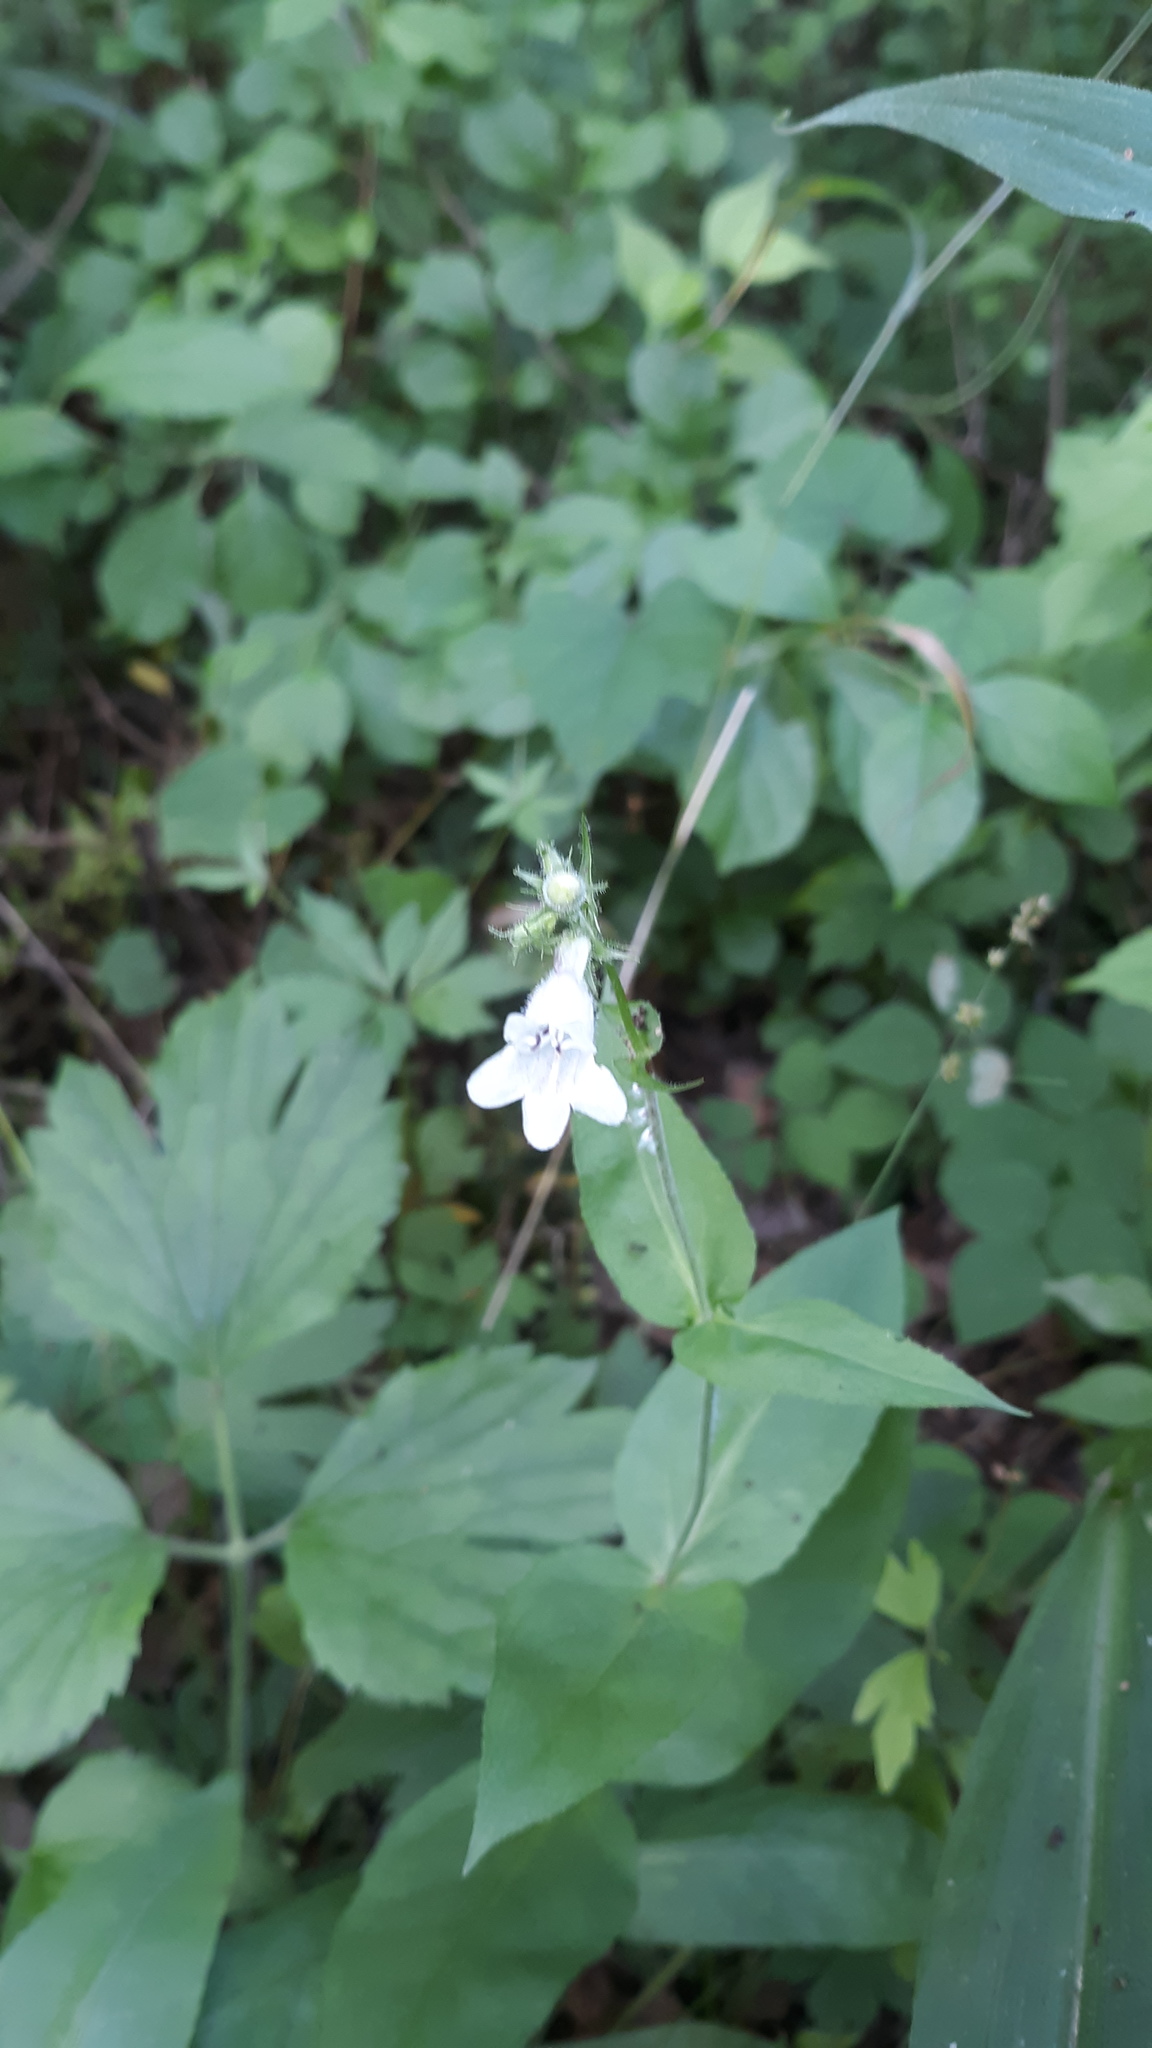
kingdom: Plantae
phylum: Tracheophyta
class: Magnoliopsida
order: Lamiales
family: Plantaginaceae
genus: Penstemon
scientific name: Penstemon digitalis
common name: Foxglove beardtongue
